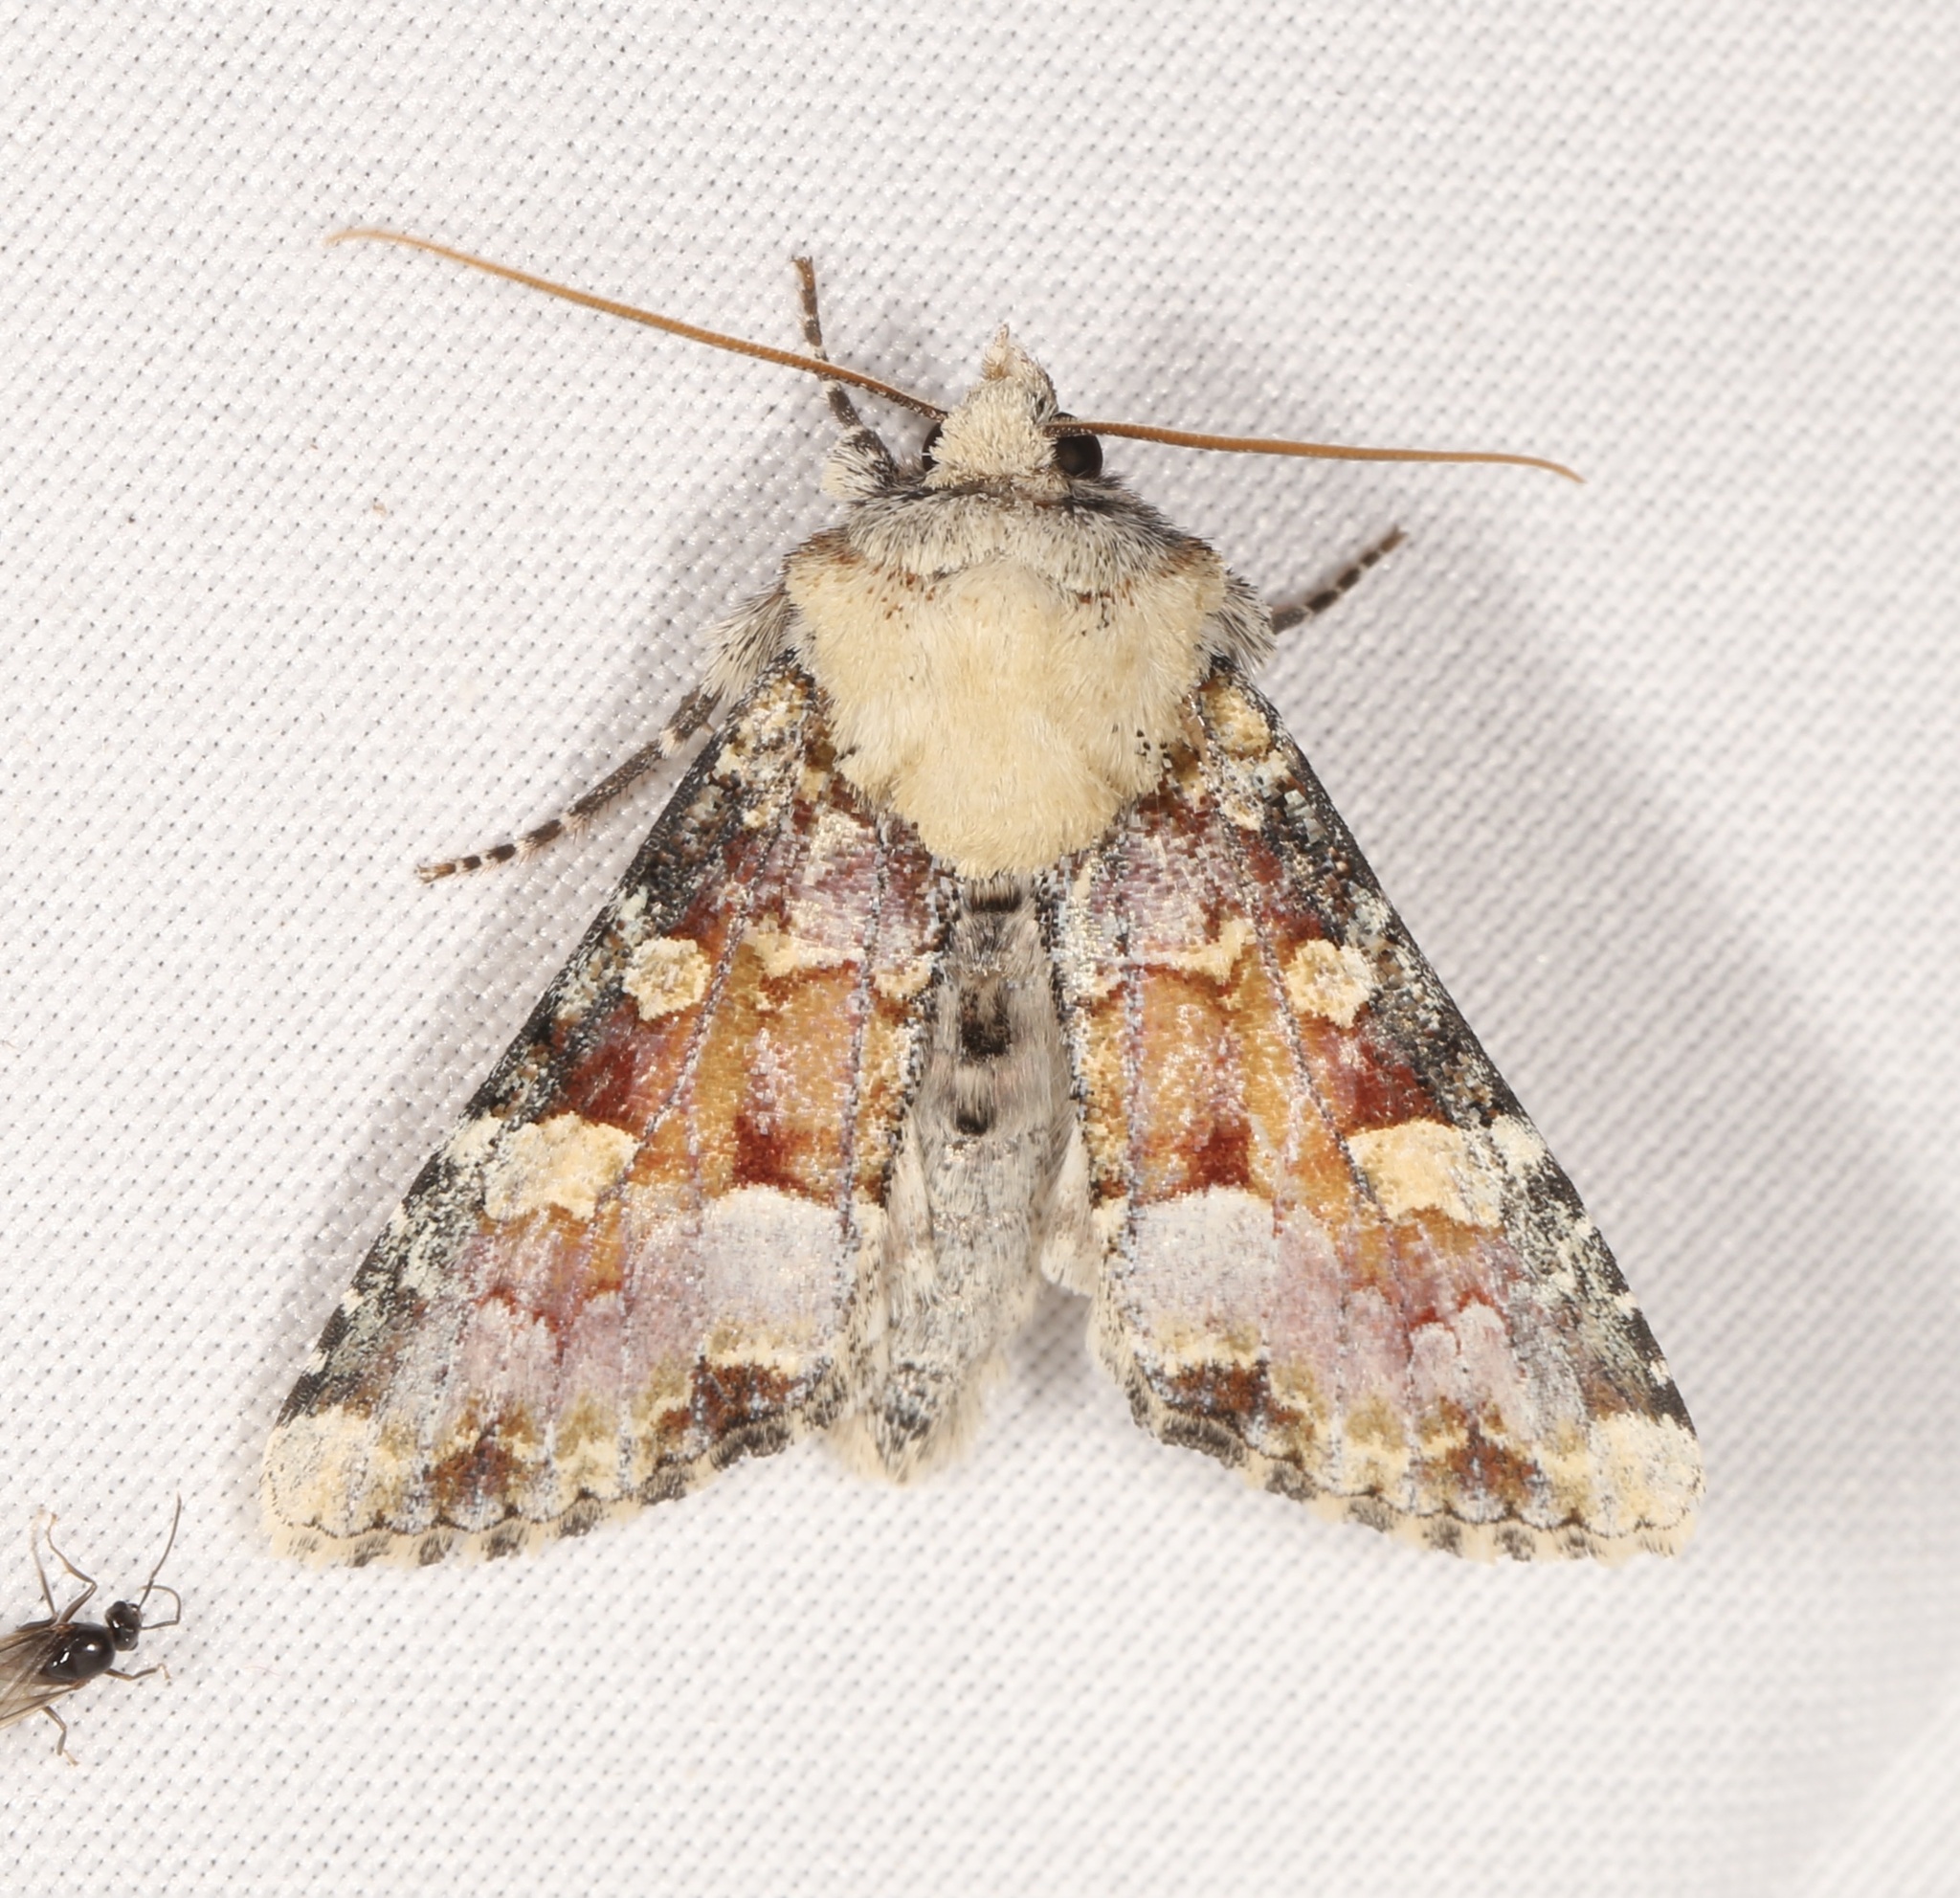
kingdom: Animalia
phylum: Arthropoda
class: Insecta
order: Lepidoptera
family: Noctuidae
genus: Oligia
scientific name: Oligia rampartensis
